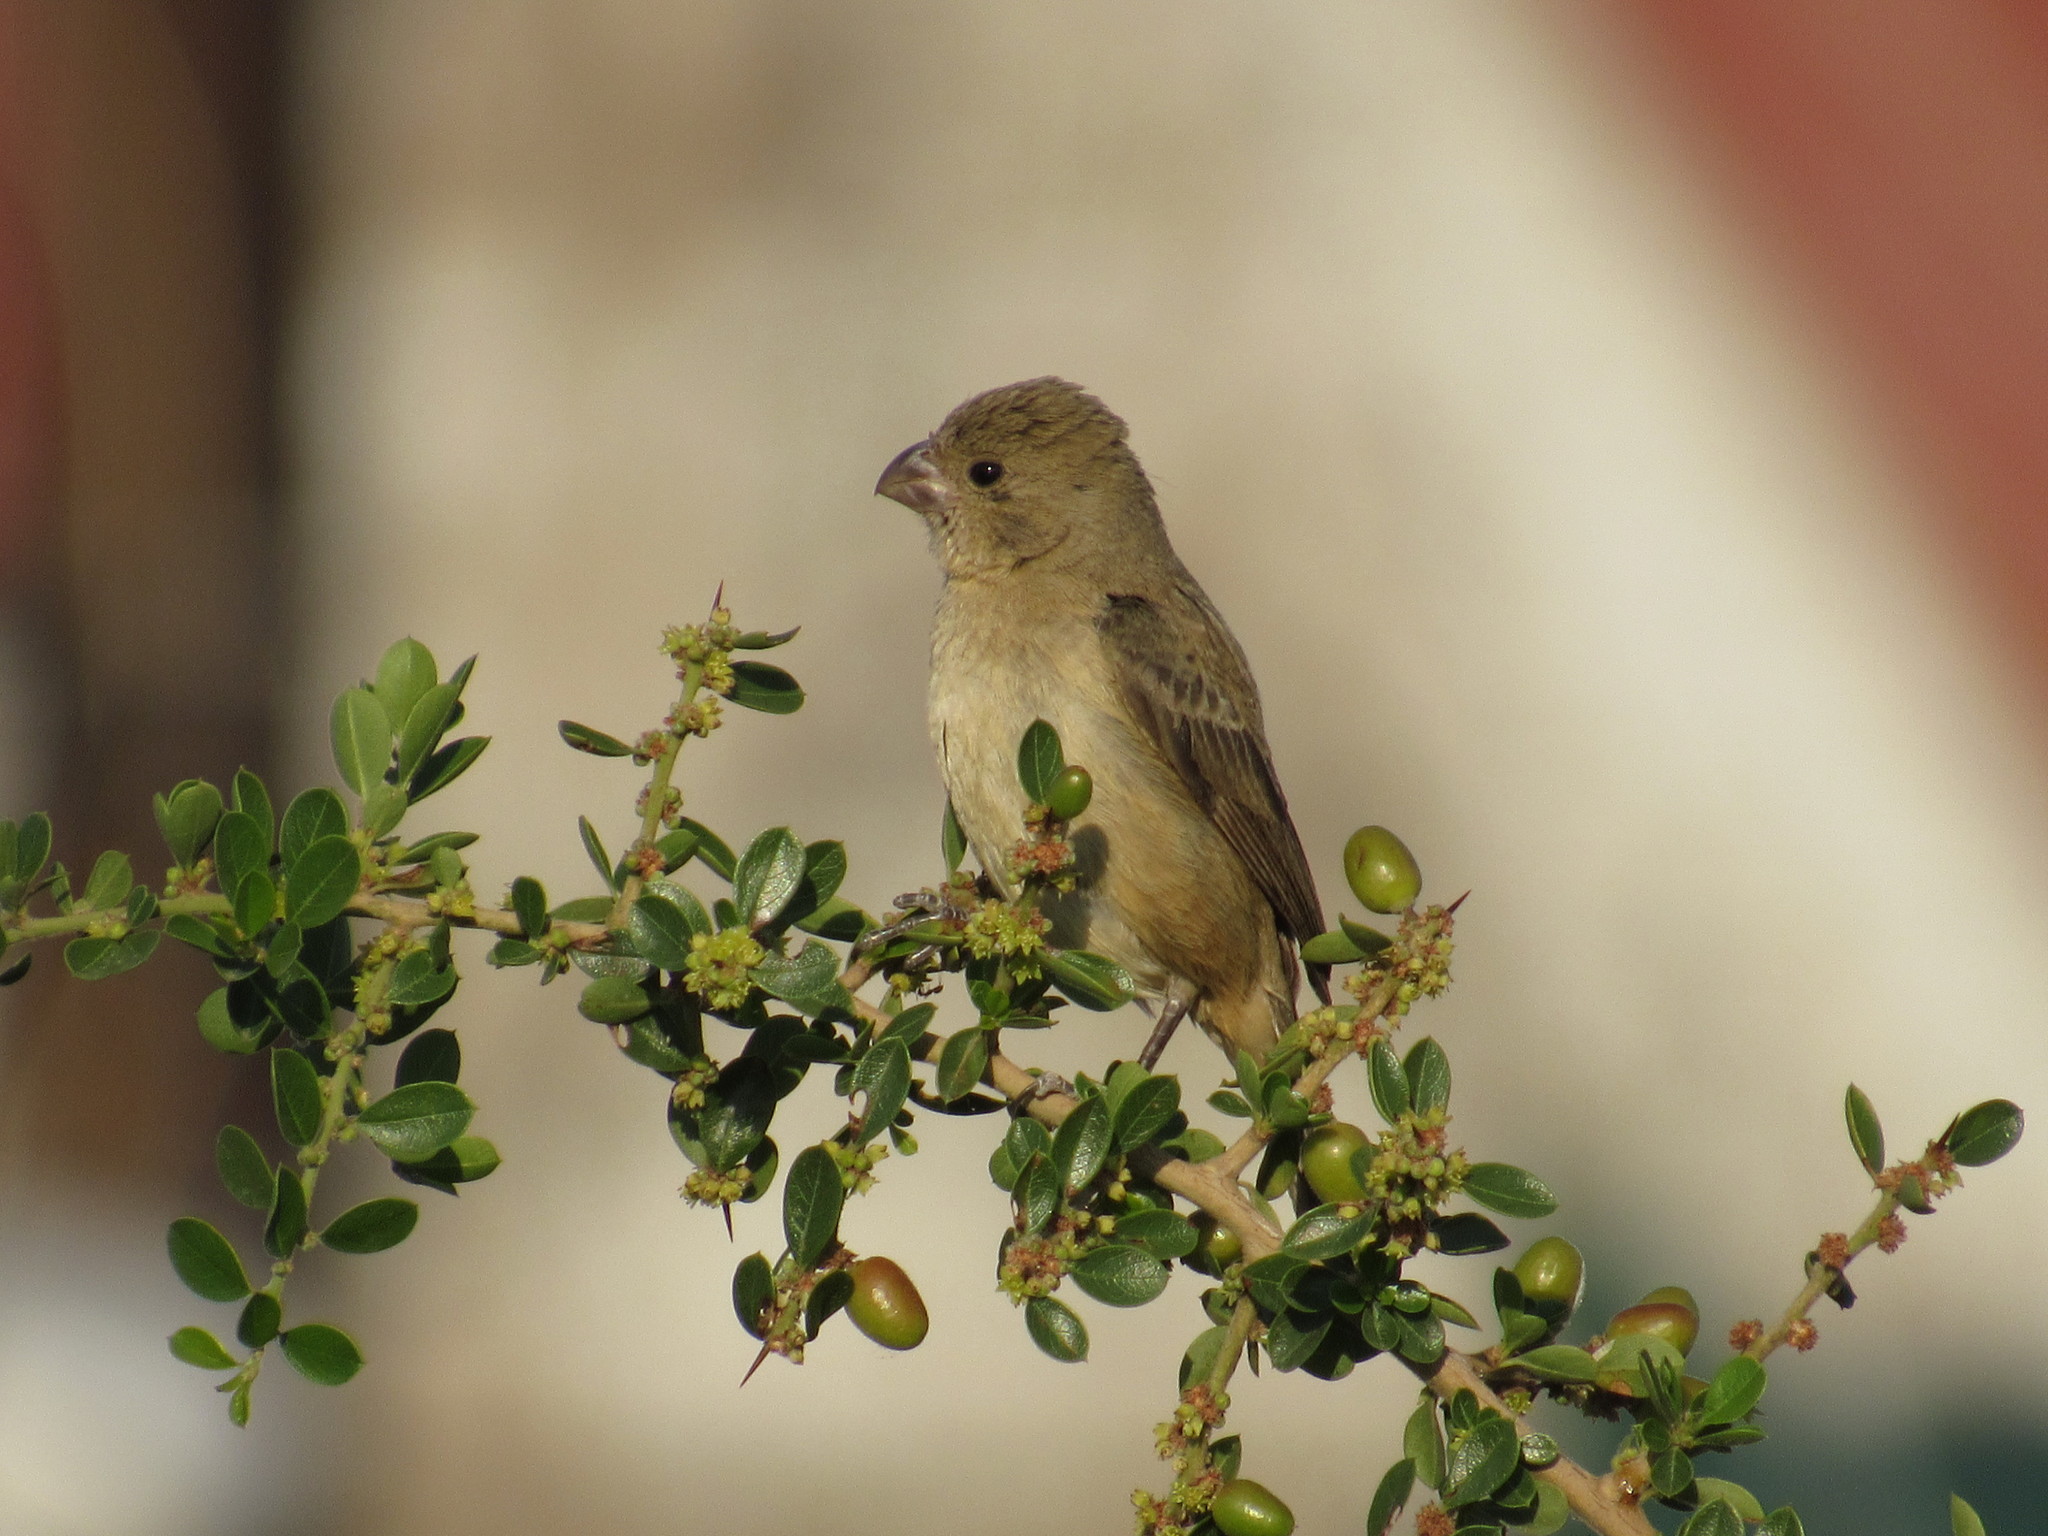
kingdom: Animalia
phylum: Chordata
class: Aves
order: Passeriformes
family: Thraupidae
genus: Sporophila
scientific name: Sporophila torqueola
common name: White-collared seedeater
